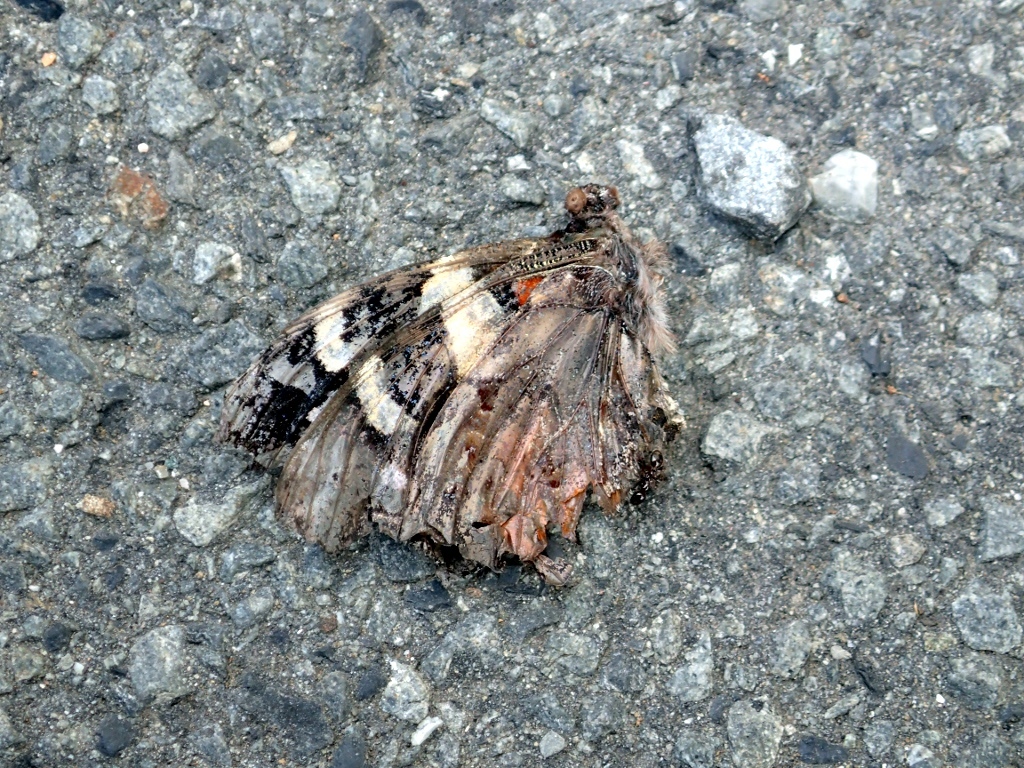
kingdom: Animalia
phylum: Arthropoda
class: Insecta
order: Lepidoptera
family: Nymphalidae
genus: Vanessa
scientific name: Vanessa itea
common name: Yellow admiral
